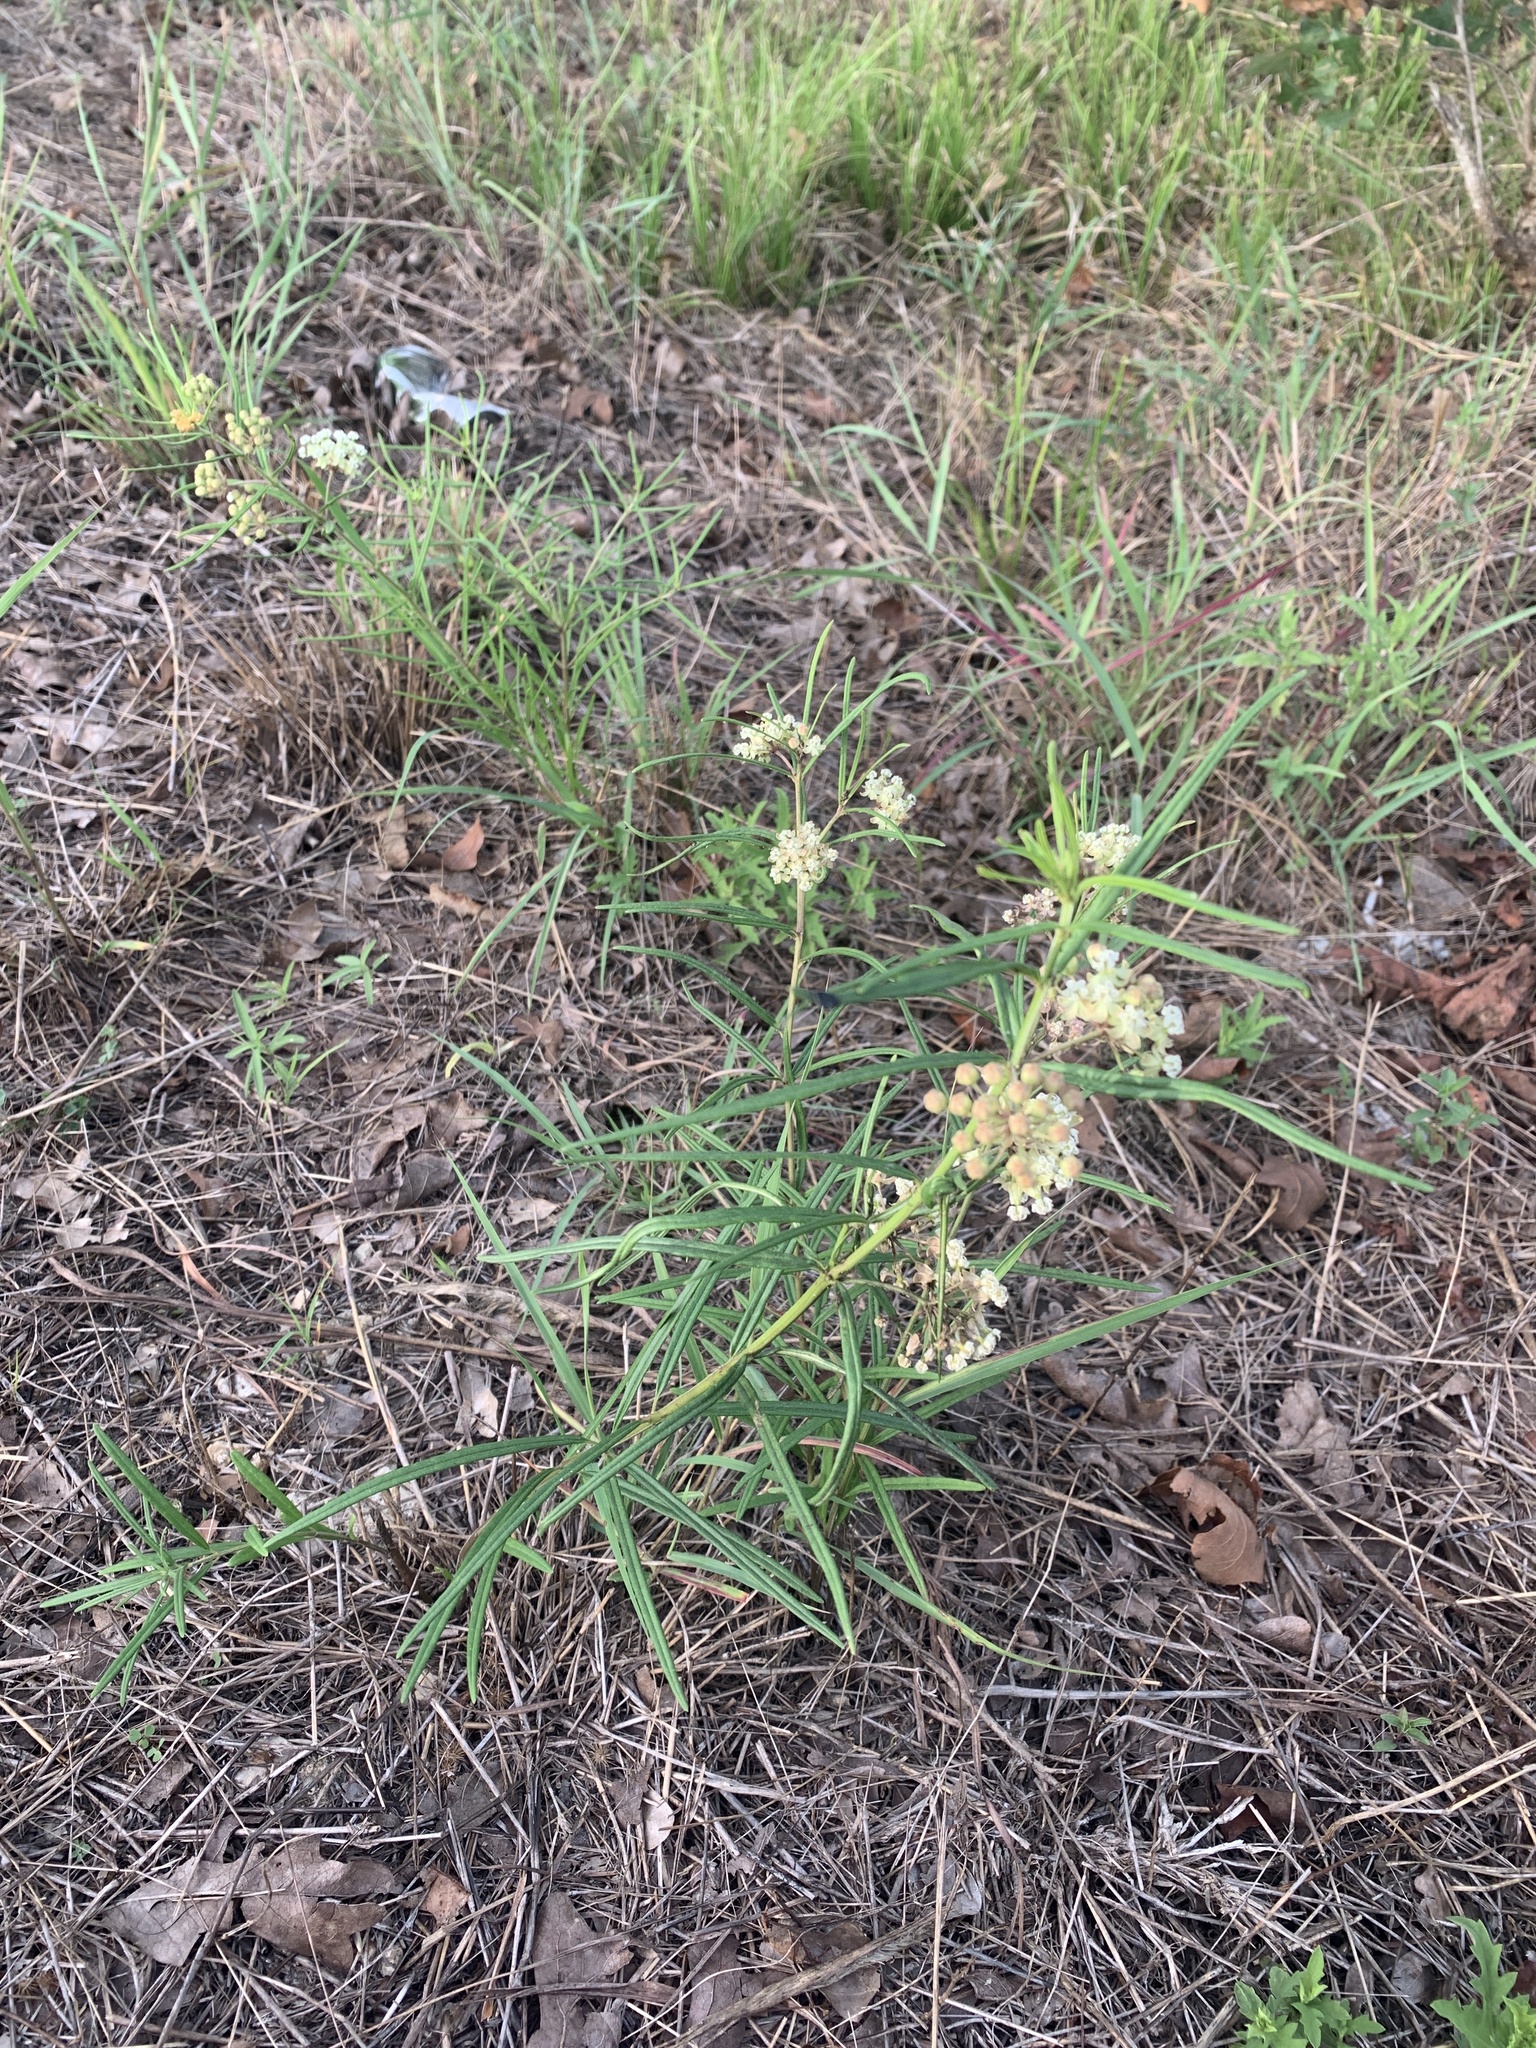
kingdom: Plantae
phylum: Tracheophyta
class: Magnoliopsida
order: Gentianales
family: Apocynaceae
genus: Asclepias
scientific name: Asclepias verticillata
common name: Eastern whorled milkweed
